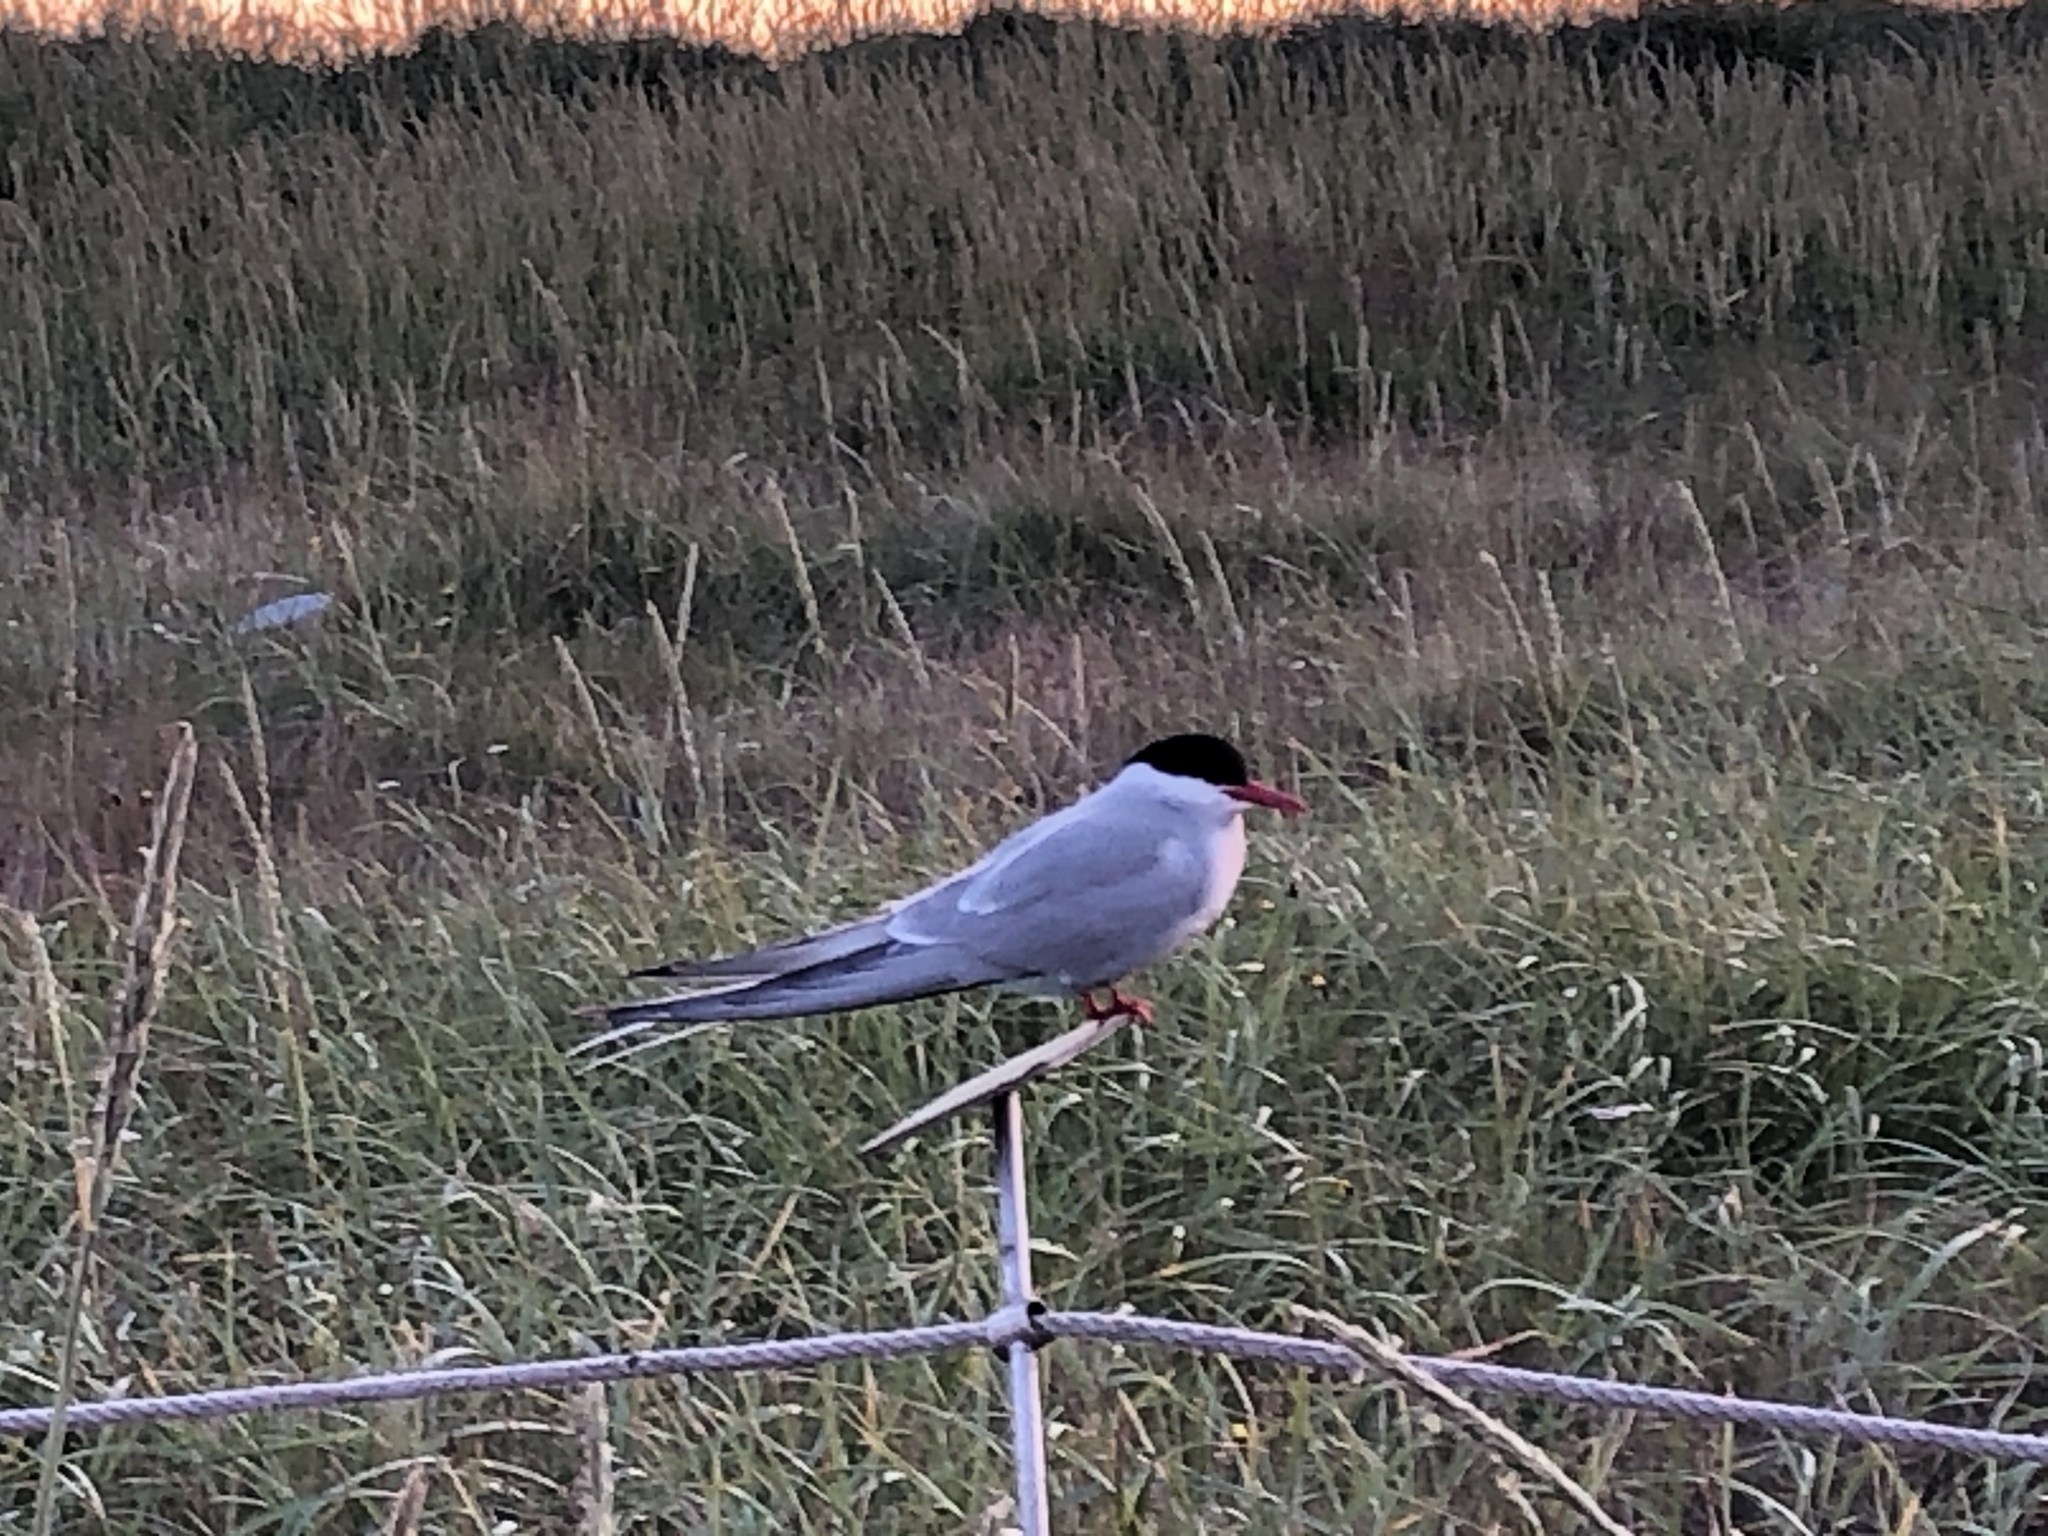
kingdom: Animalia
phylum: Chordata
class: Aves
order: Charadriiformes
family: Laridae
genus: Sterna
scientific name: Sterna paradisaea
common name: Arctic tern
